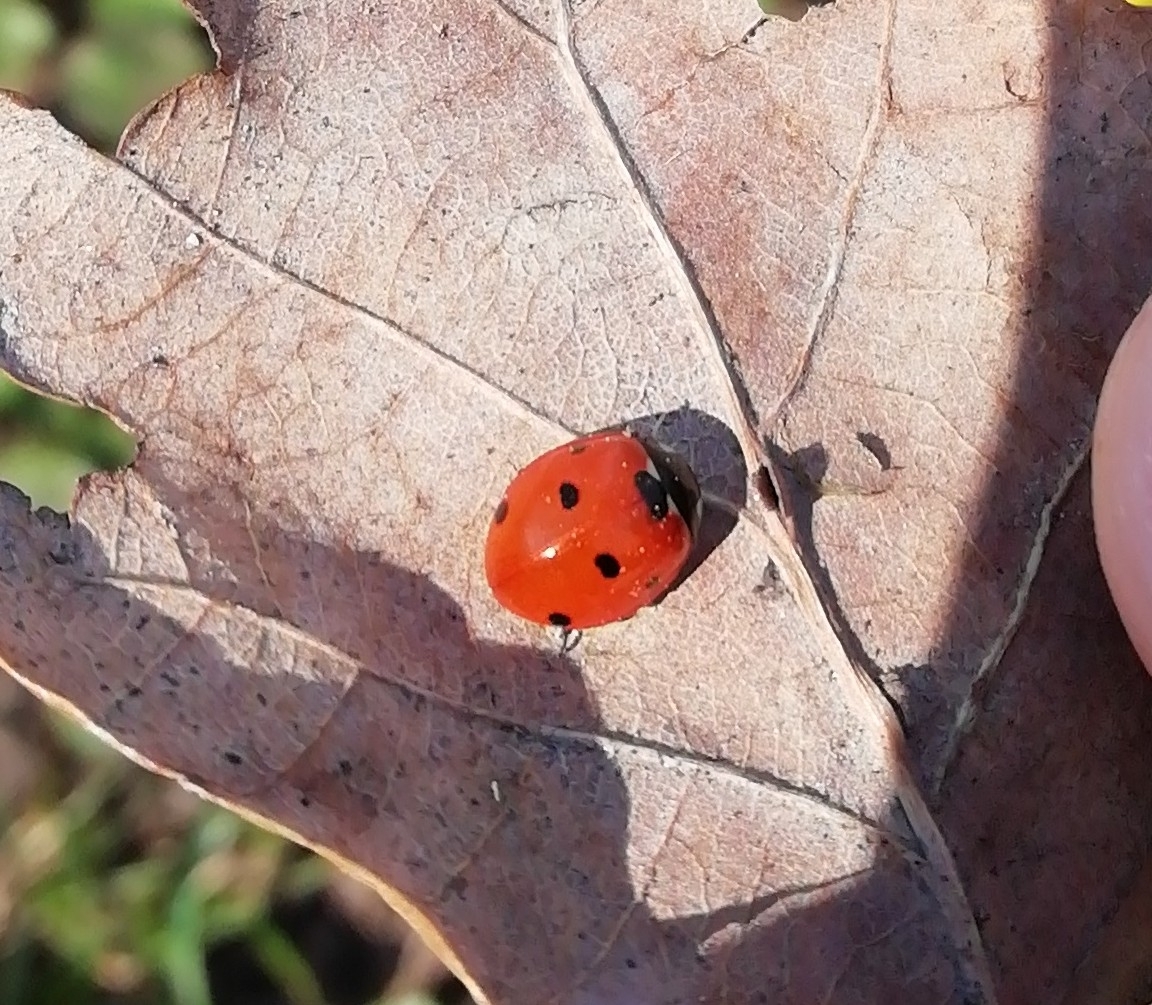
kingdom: Animalia
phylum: Arthropoda
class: Insecta
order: Coleoptera
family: Coccinellidae
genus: Coccinella
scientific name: Coccinella septempunctata
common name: Sevenspotted lady beetle
